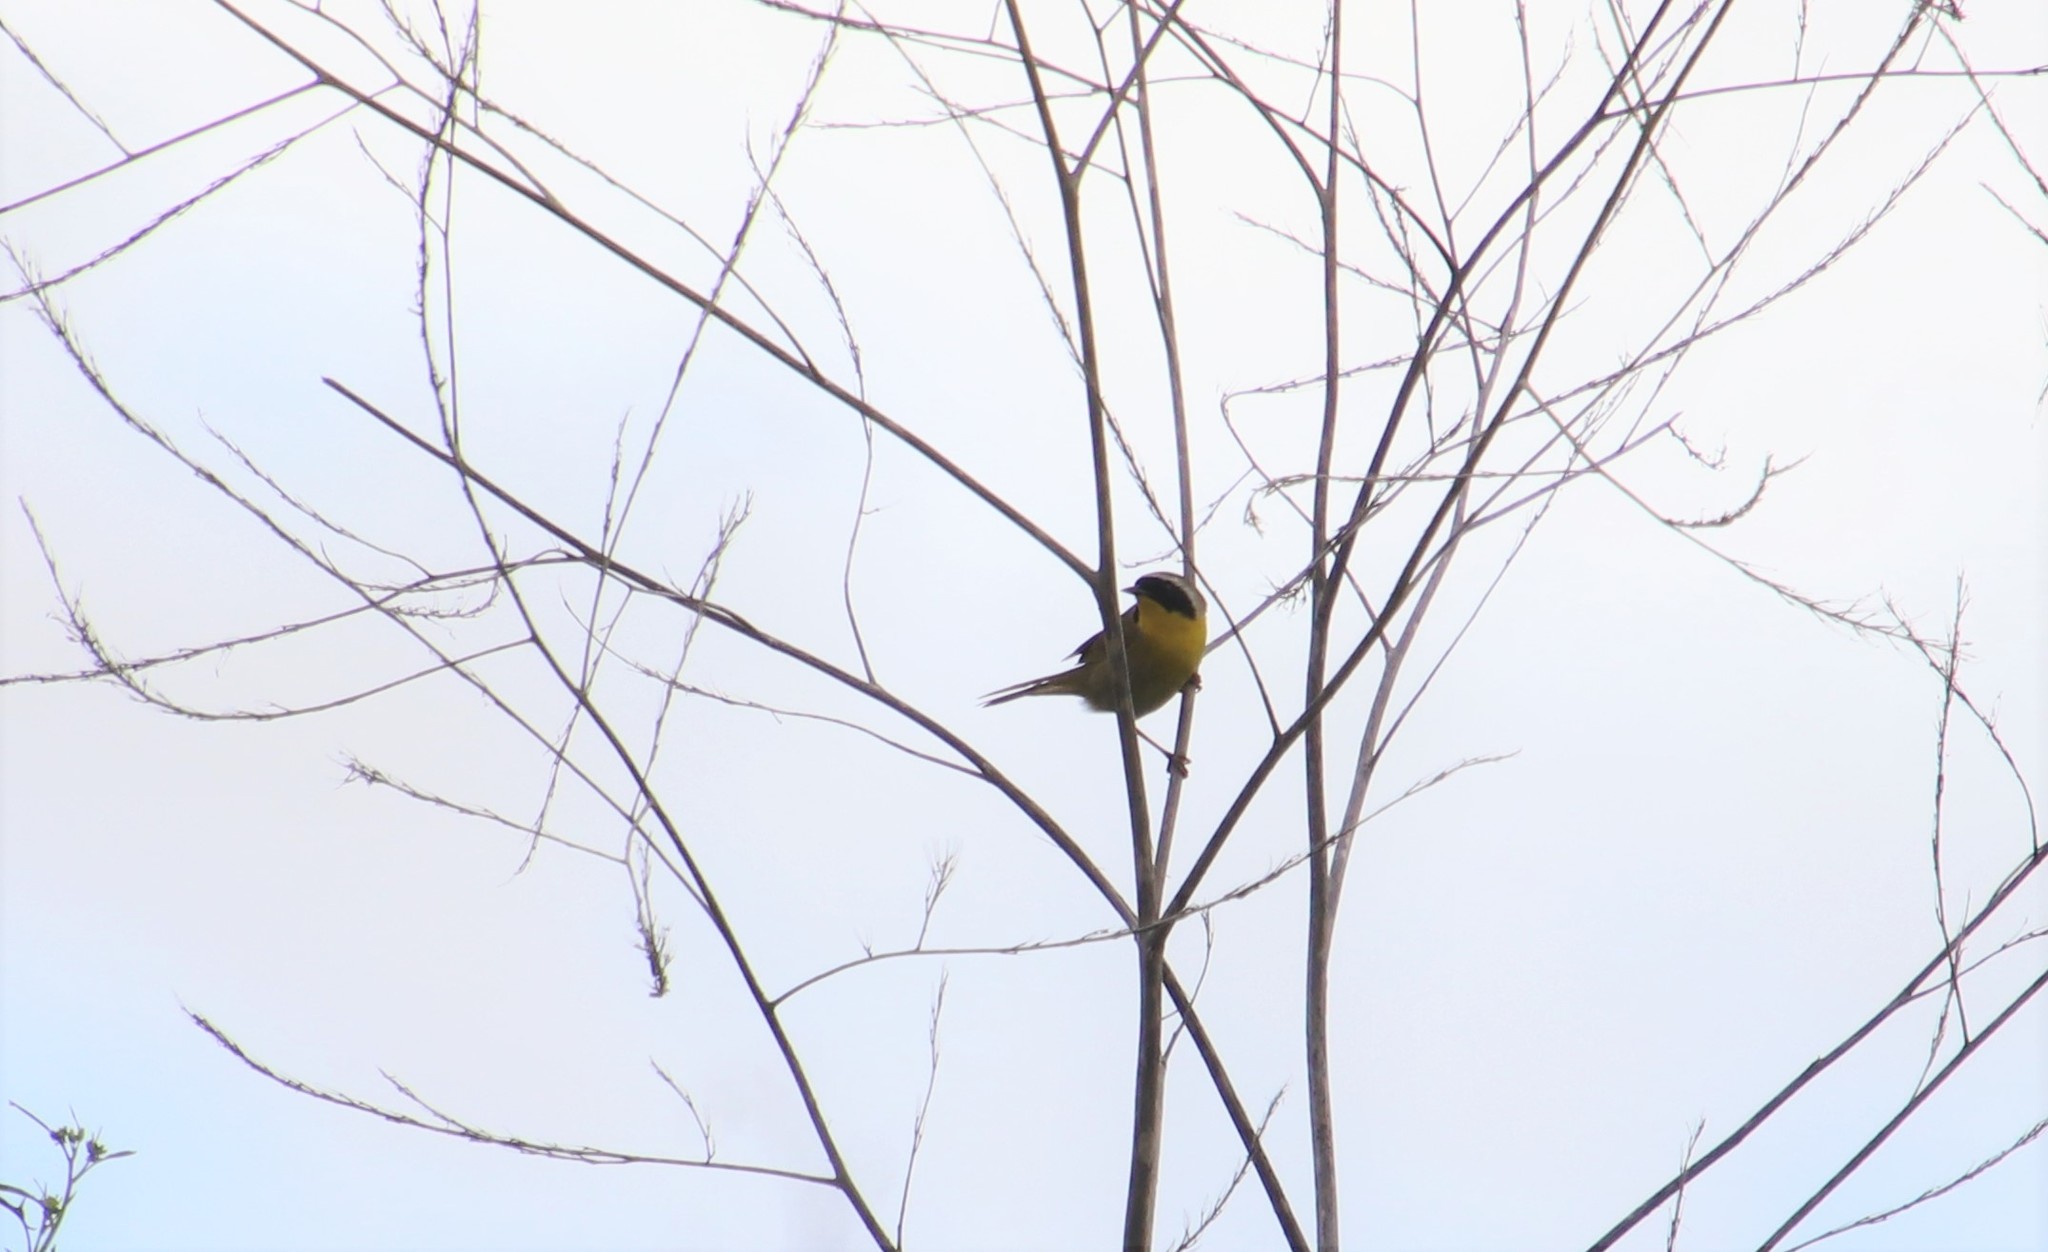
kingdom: Animalia
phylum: Chordata
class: Aves
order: Passeriformes
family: Parulidae
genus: Geothlypis
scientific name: Geothlypis trichas
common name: Common yellowthroat
